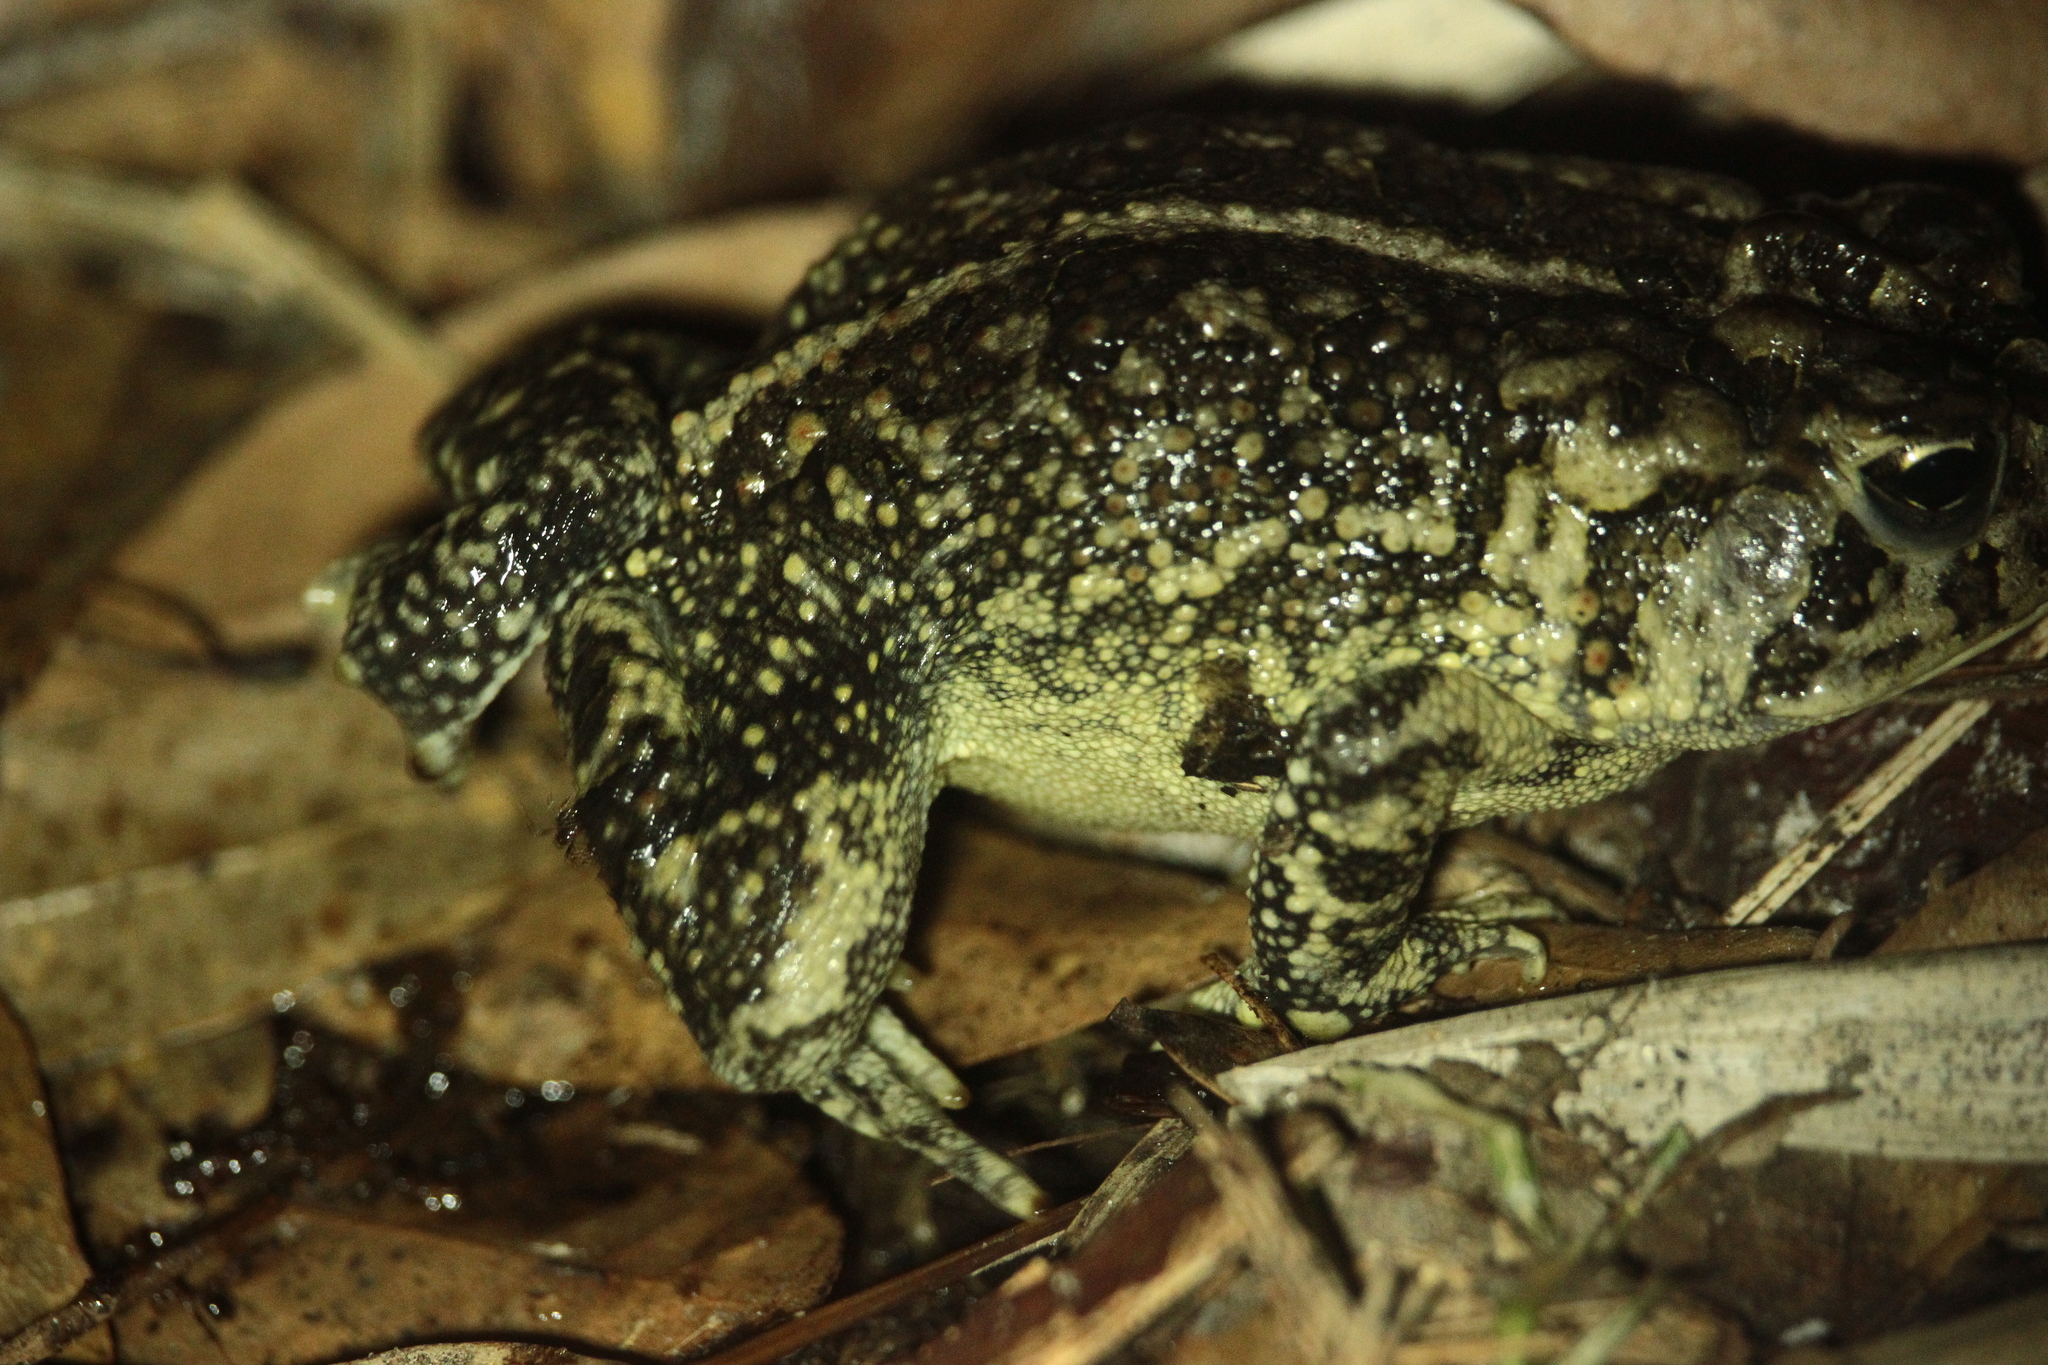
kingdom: Animalia
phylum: Chordata
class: Amphibia
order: Anura
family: Bufonidae
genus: Anaxyrus
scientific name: Anaxyrus terrestris
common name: Southern toad
